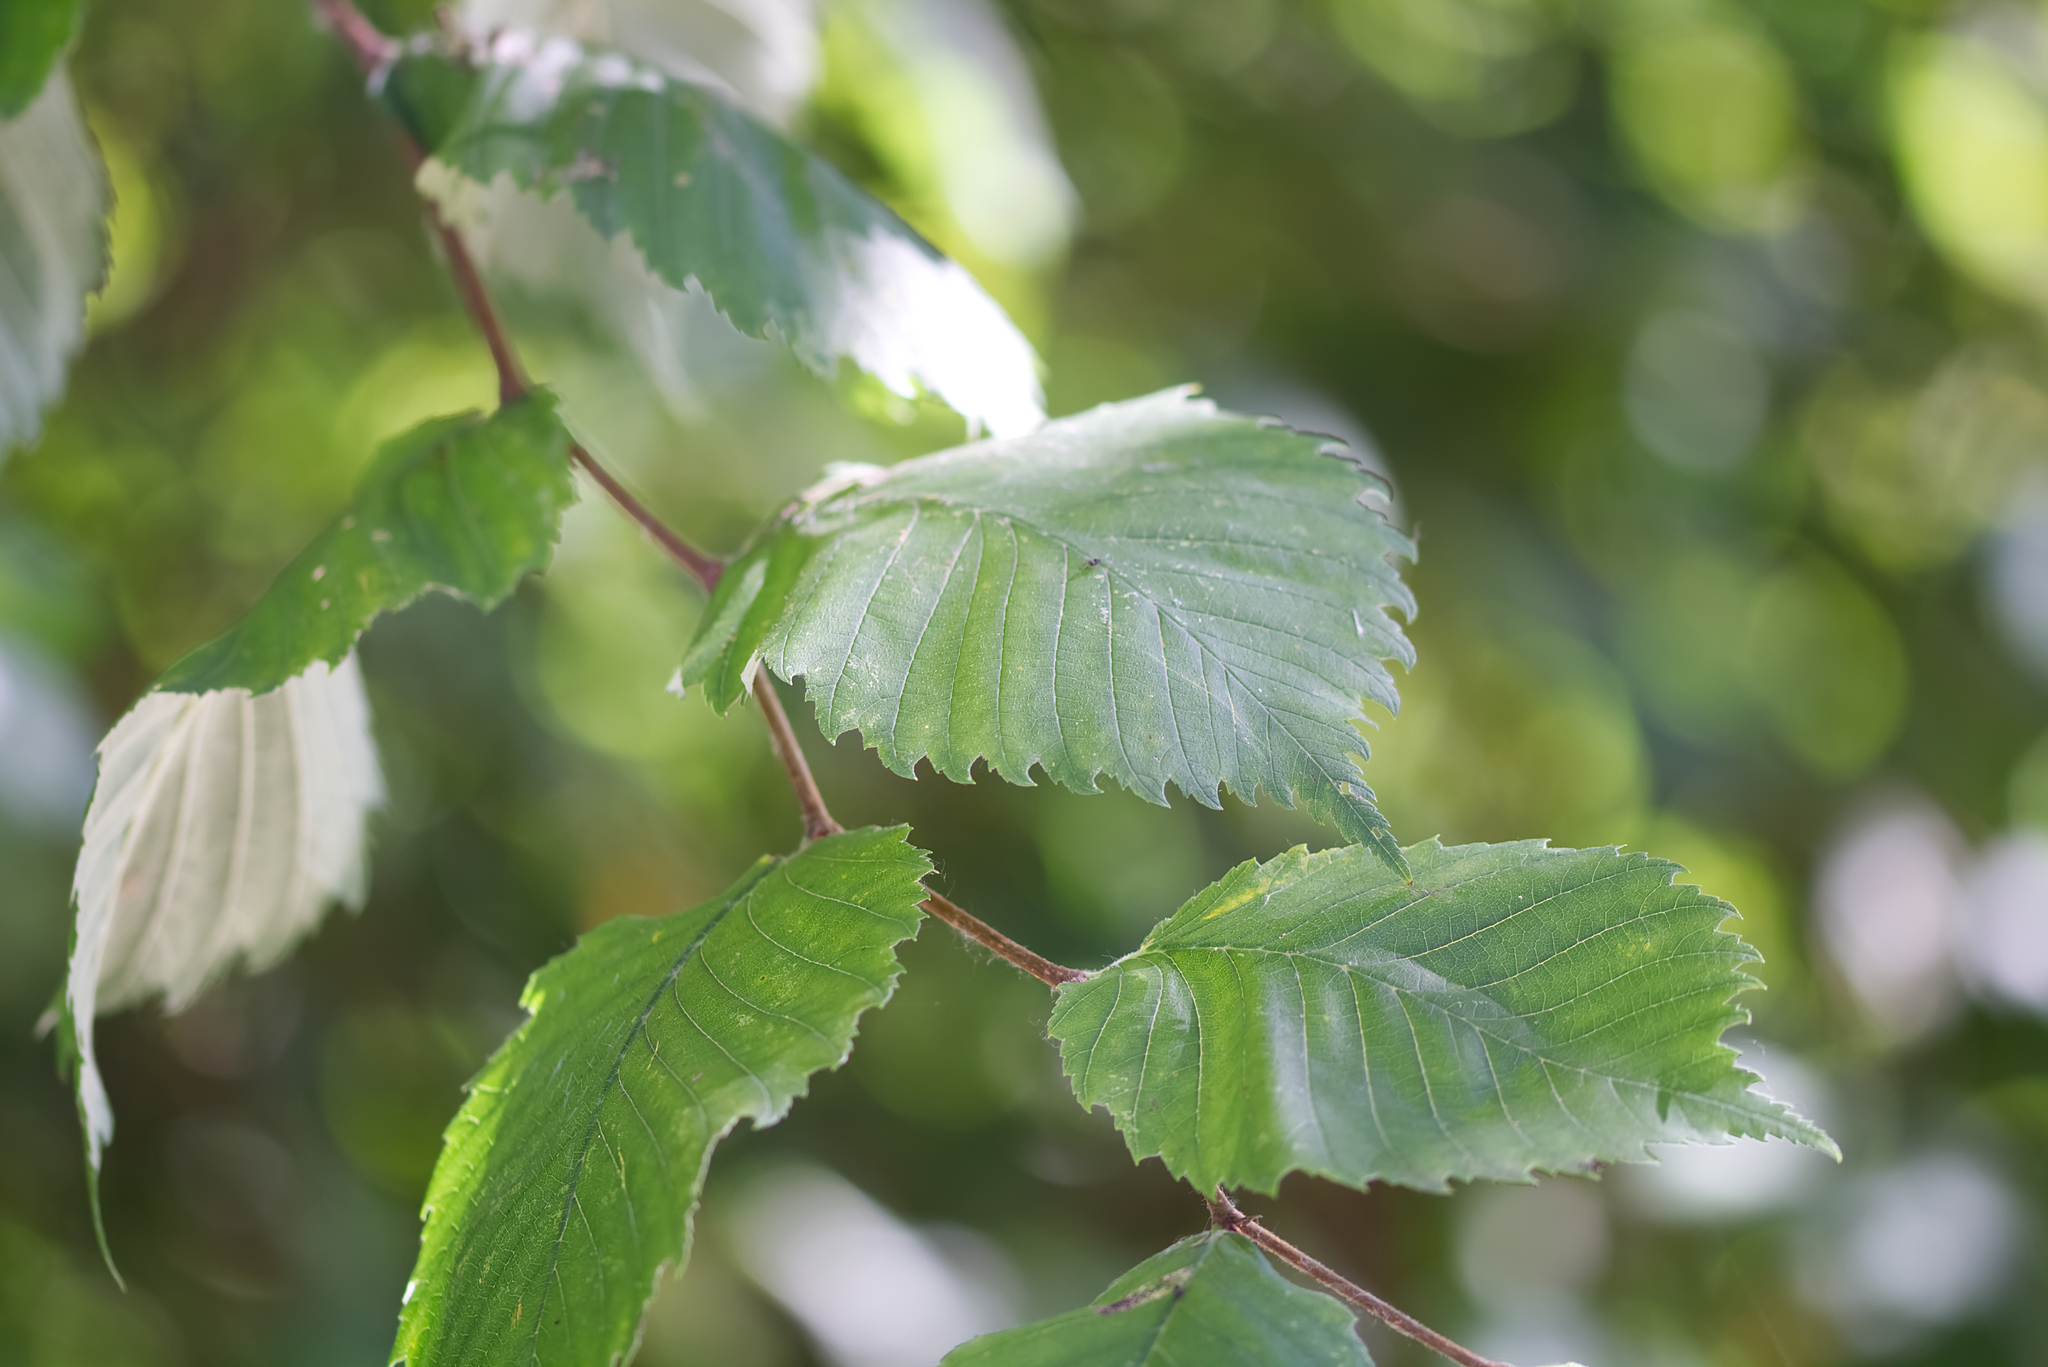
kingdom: Plantae
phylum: Tracheophyta
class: Magnoliopsida
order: Rosales
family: Ulmaceae
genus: Ulmus
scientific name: Ulmus laevis
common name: European white-elm
